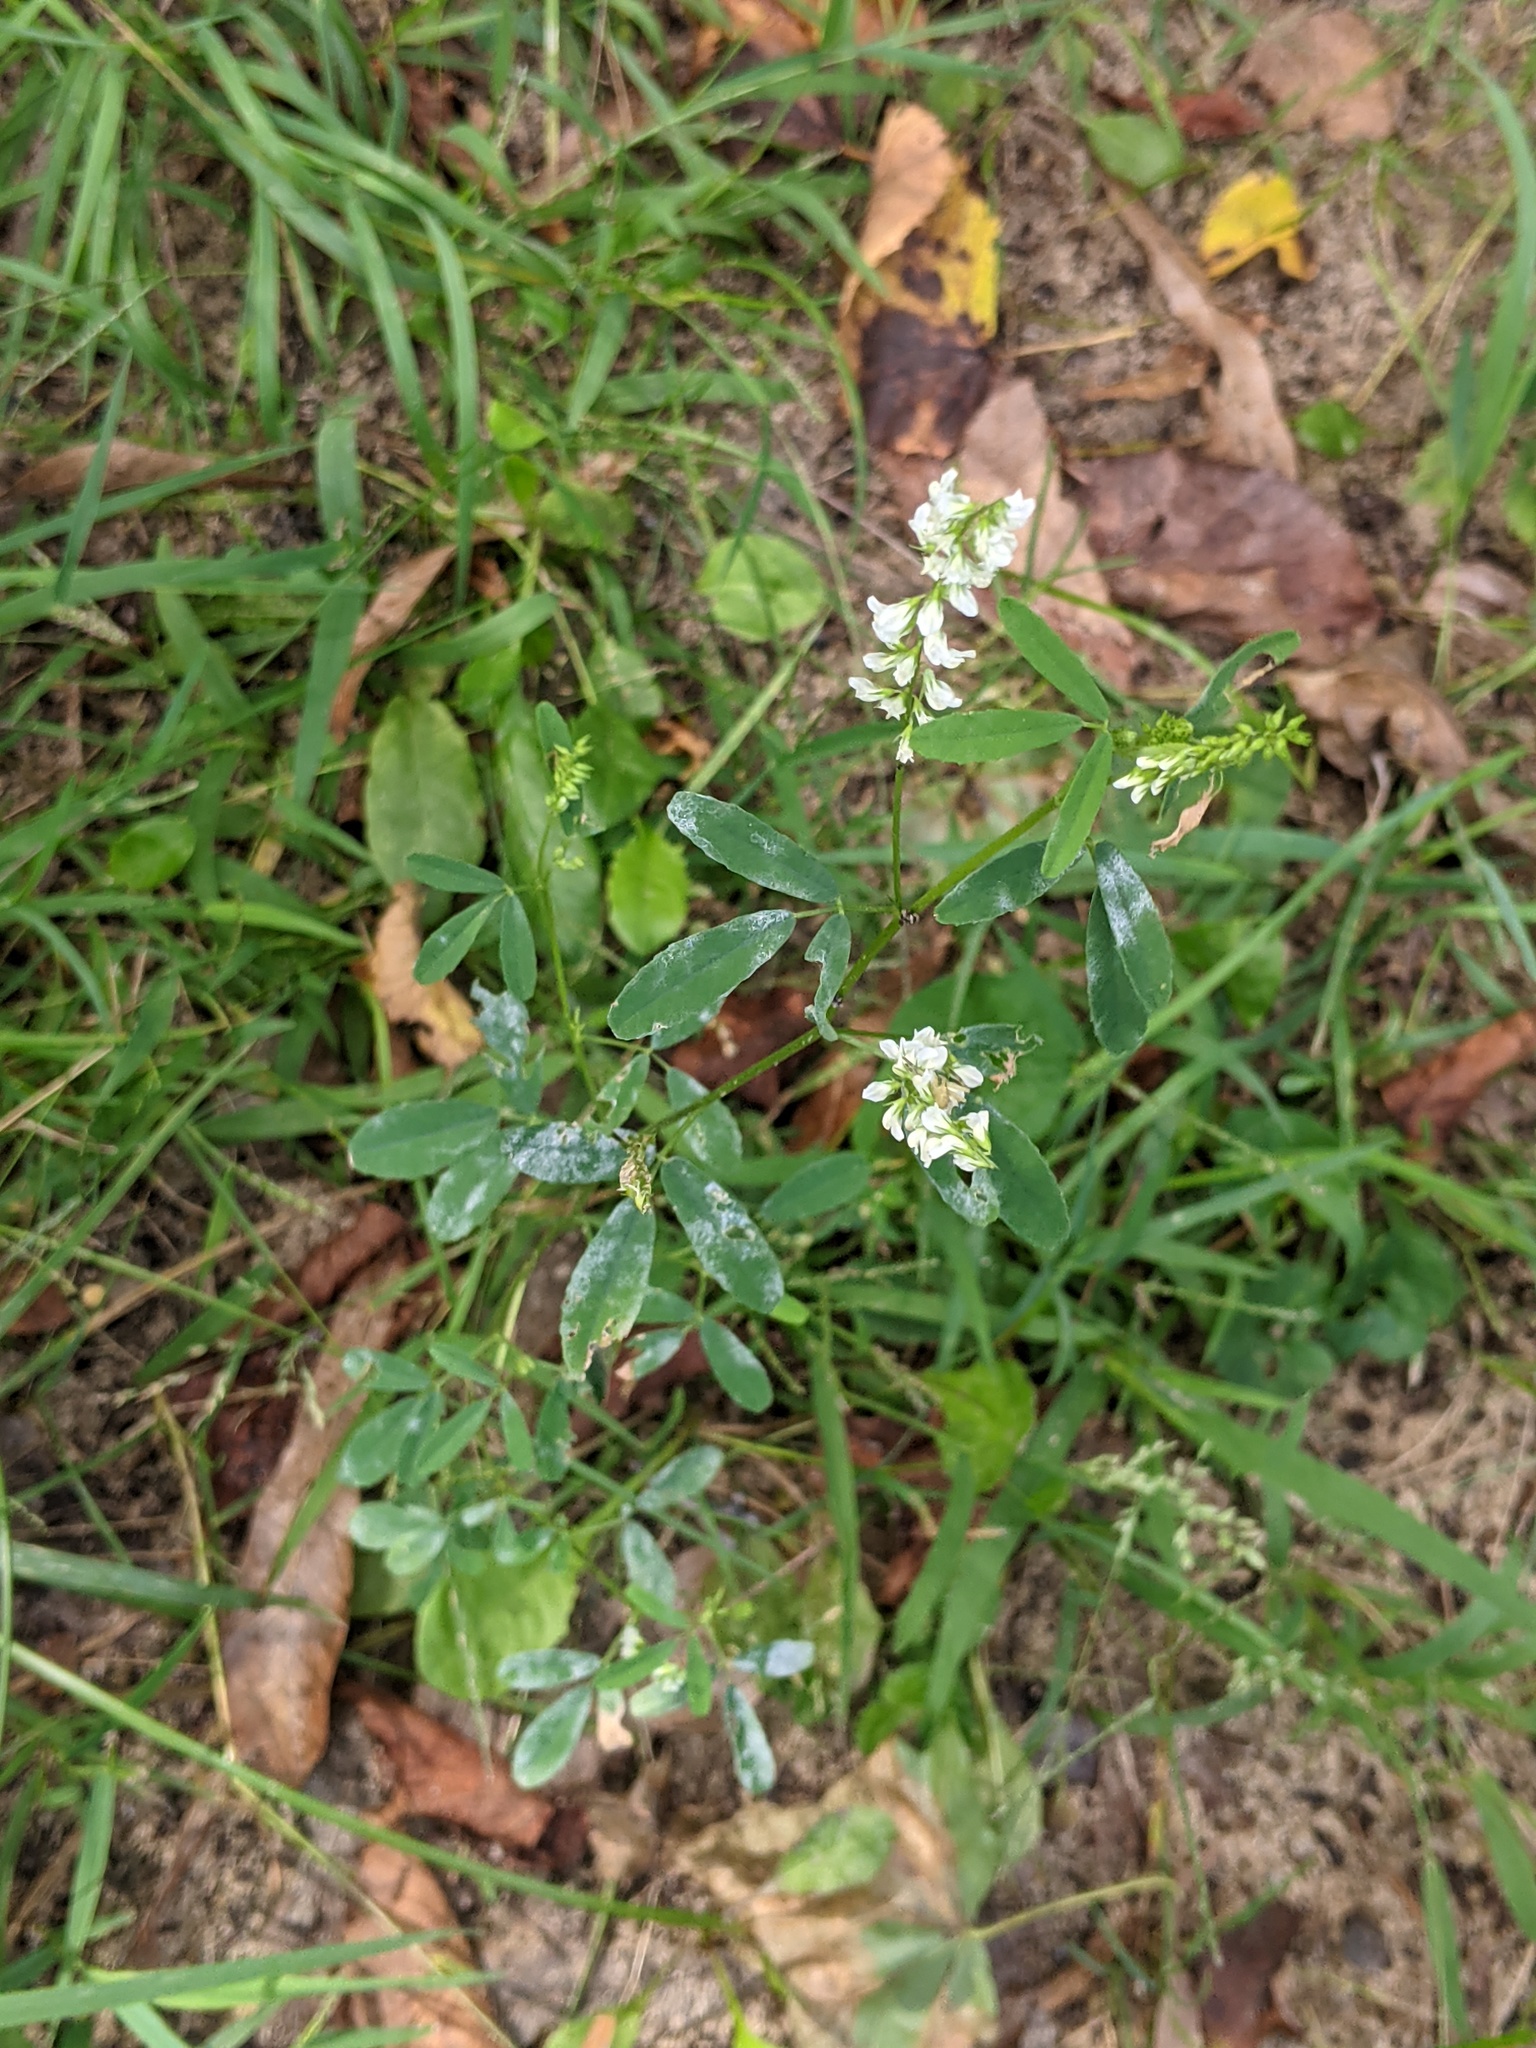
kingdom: Plantae
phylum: Tracheophyta
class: Magnoliopsida
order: Fabales
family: Fabaceae
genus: Melilotus
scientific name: Melilotus albus
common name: White melilot
